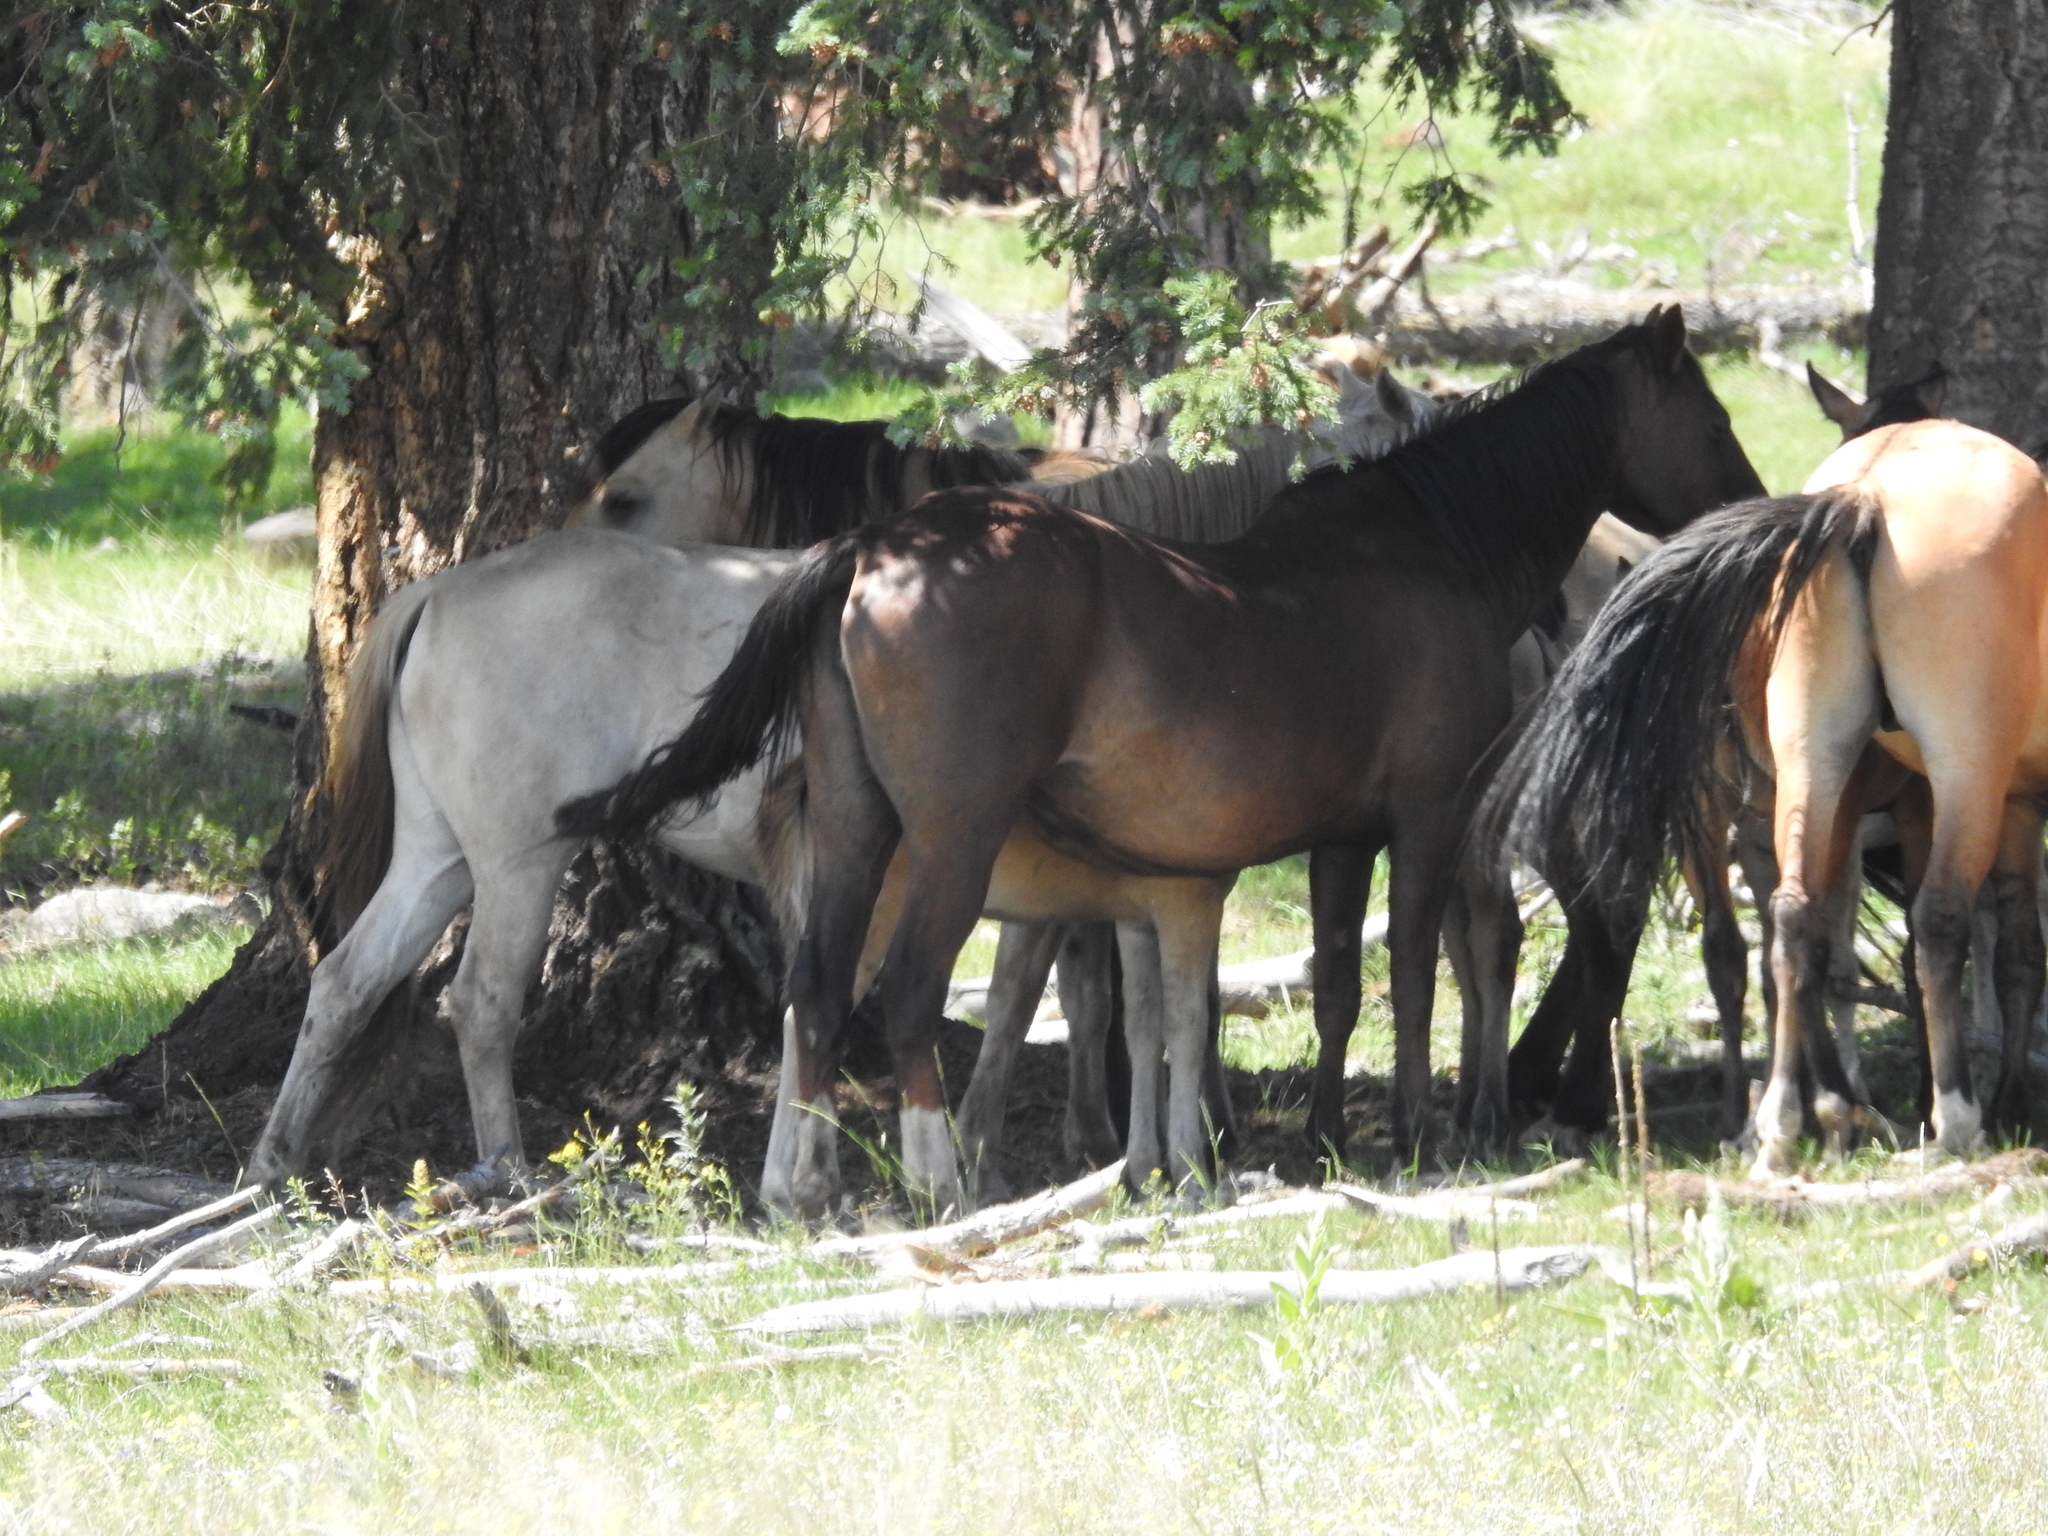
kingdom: Animalia
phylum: Chordata
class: Mammalia
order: Perissodactyla
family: Equidae
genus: Equus
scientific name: Equus caballus
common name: Horse
